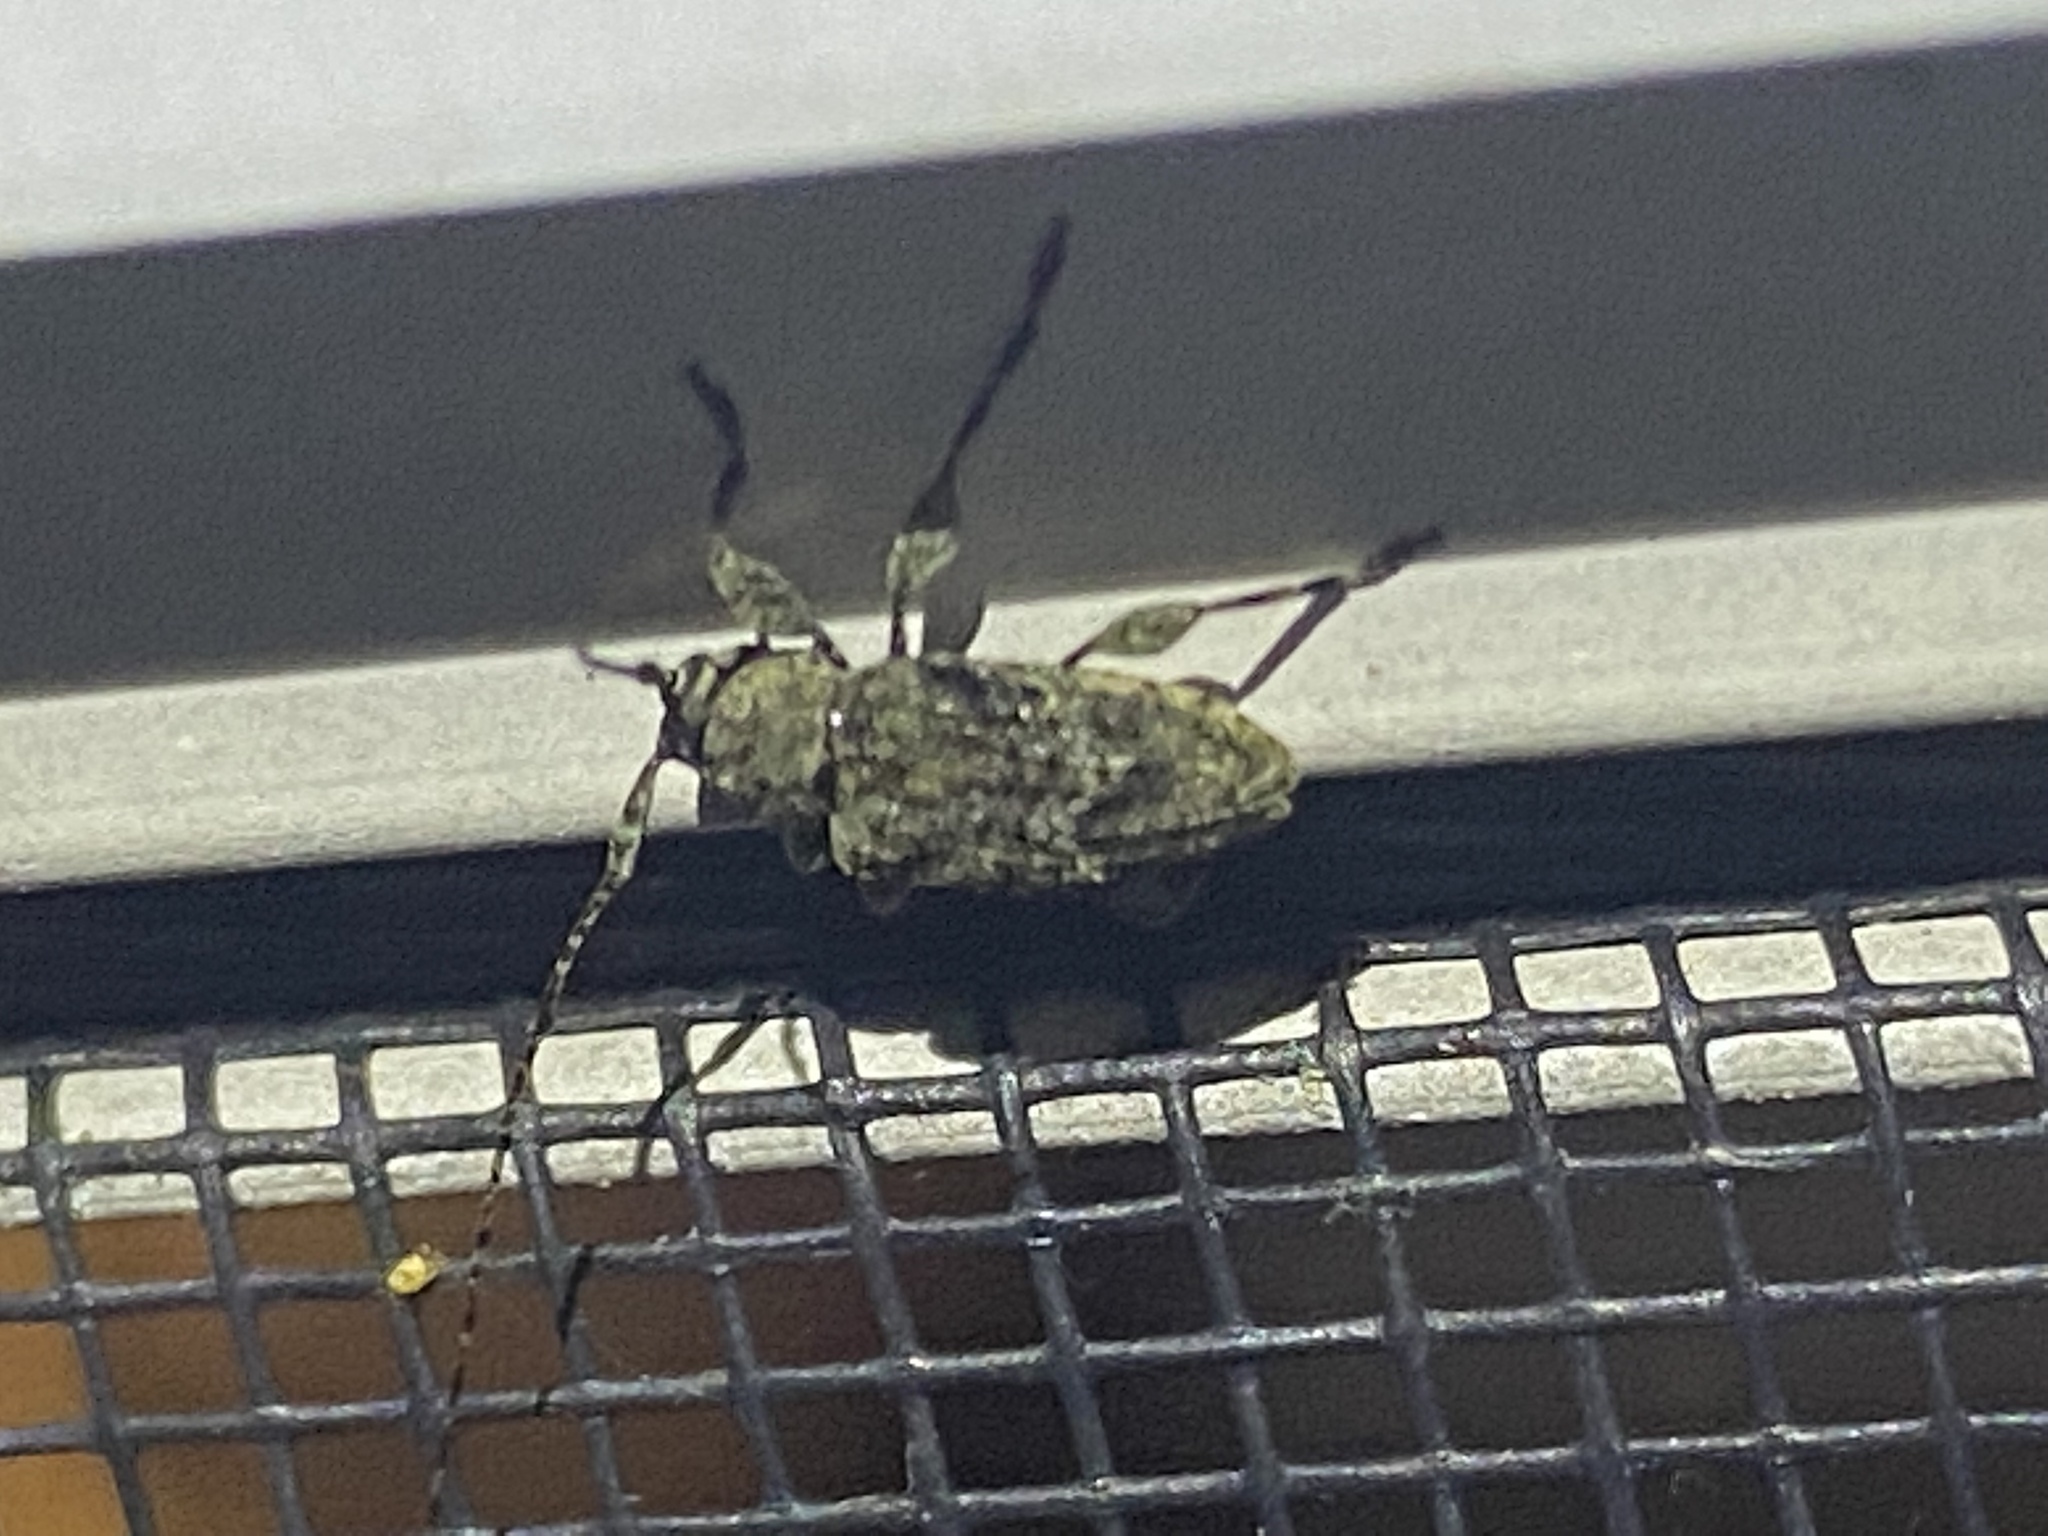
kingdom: Animalia
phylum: Arthropoda
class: Insecta
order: Coleoptera
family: Cerambycidae
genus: Astylidius
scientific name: Astylidius parvus
